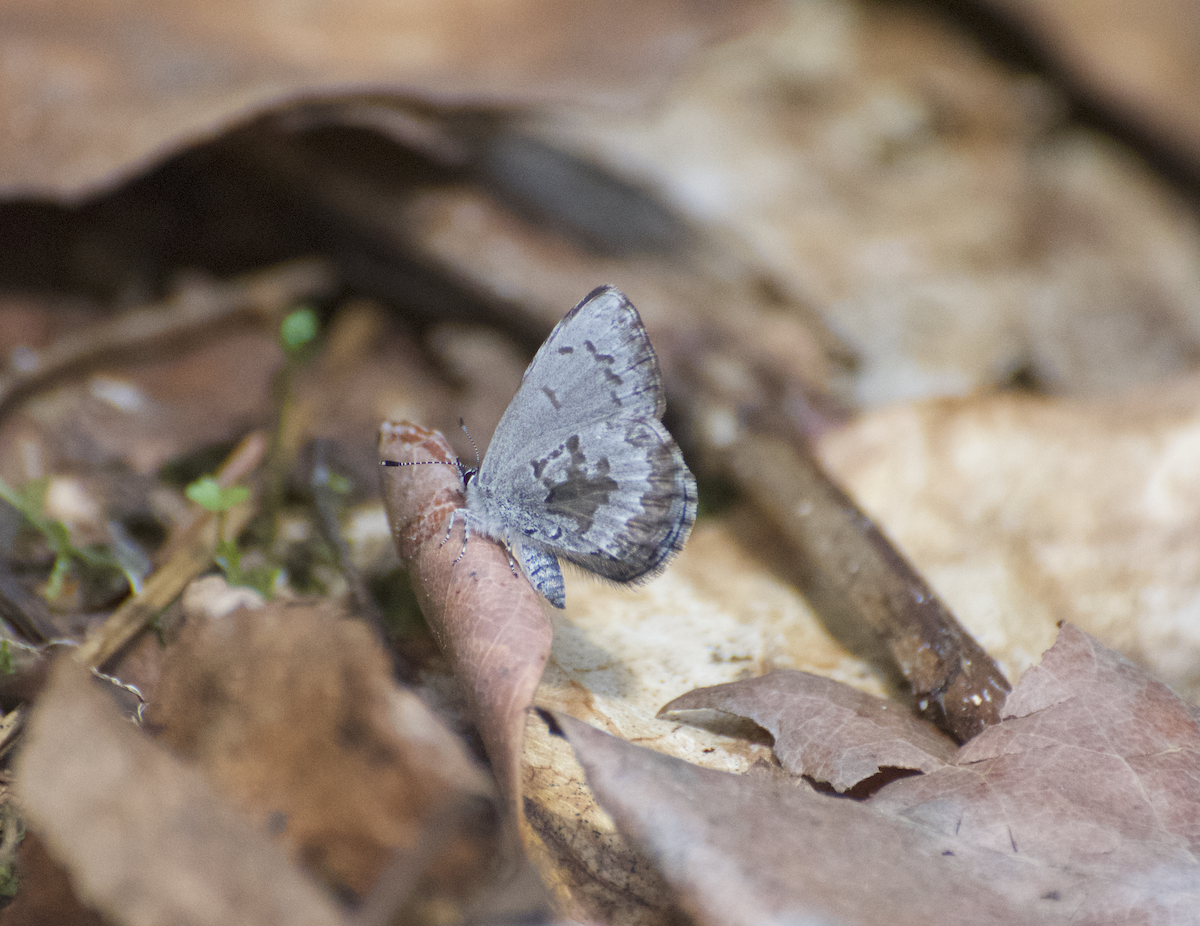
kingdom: Animalia
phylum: Arthropoda
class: Insecta
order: Lepidoptera
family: Lycaenidae
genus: Celastrina
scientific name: Celastrina lucia
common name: Lucia azure
